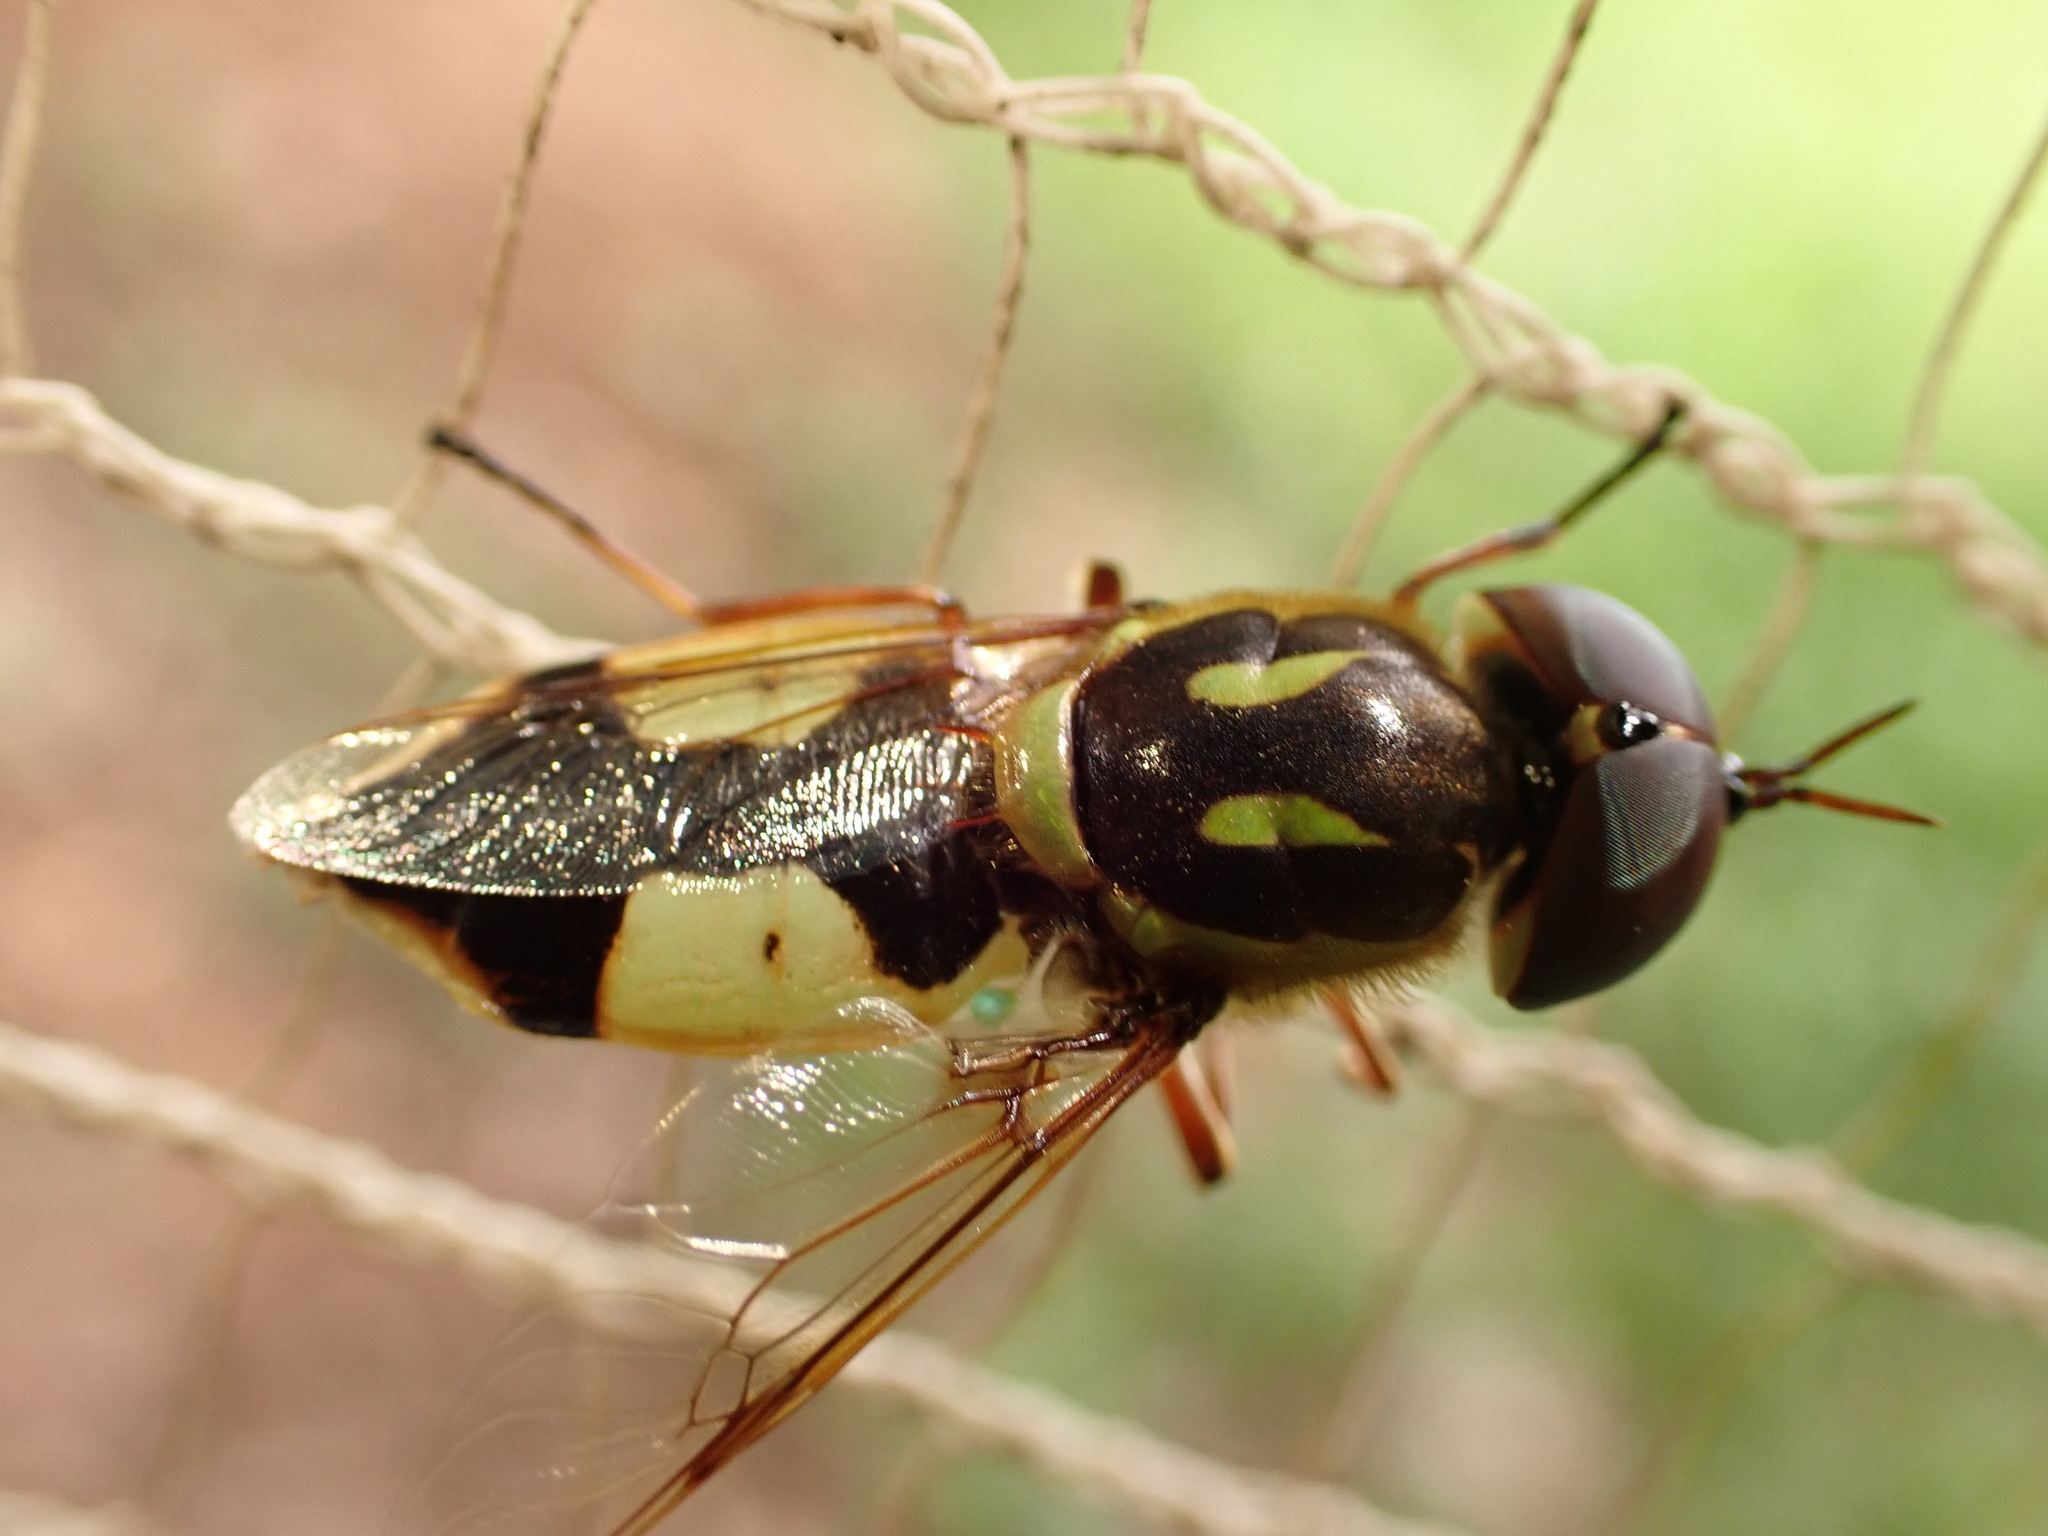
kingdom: Animalia
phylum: Arthropoda
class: Insecta
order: Diptera
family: Stratiomyidae
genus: Hedriodiscus
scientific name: Hedriodiscus pulcher
